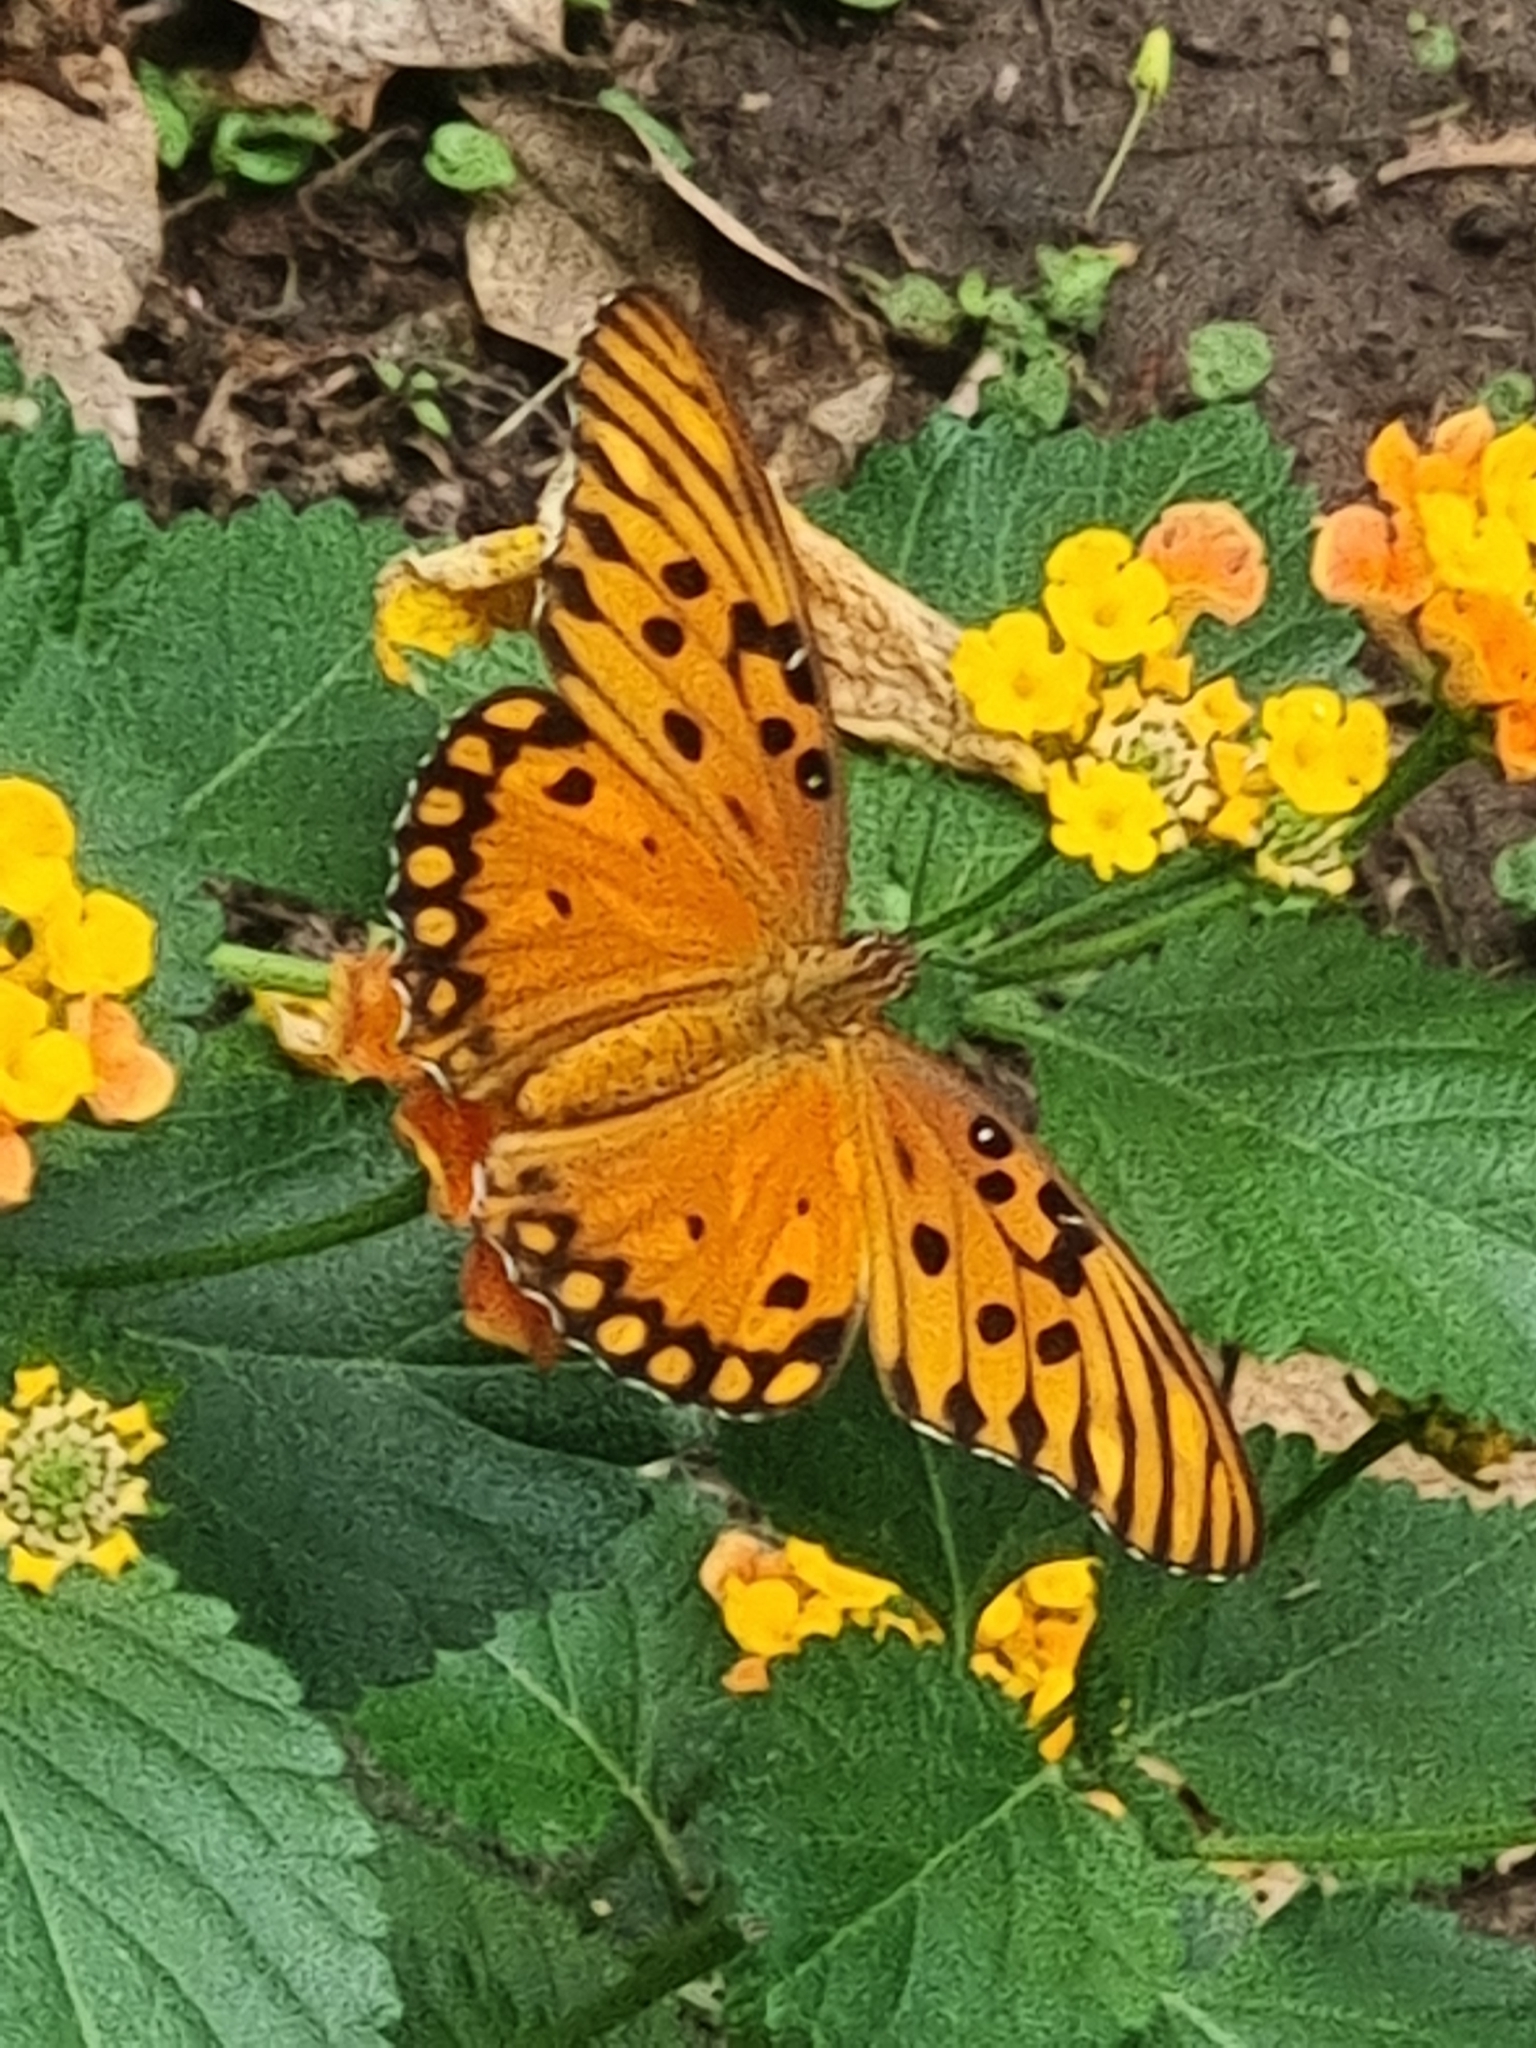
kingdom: Animalia
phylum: Arthropoda
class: Insecta
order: Lepidoptera
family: Nymphalidae
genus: Dione
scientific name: Dione vanillae
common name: Gulf fritillary
